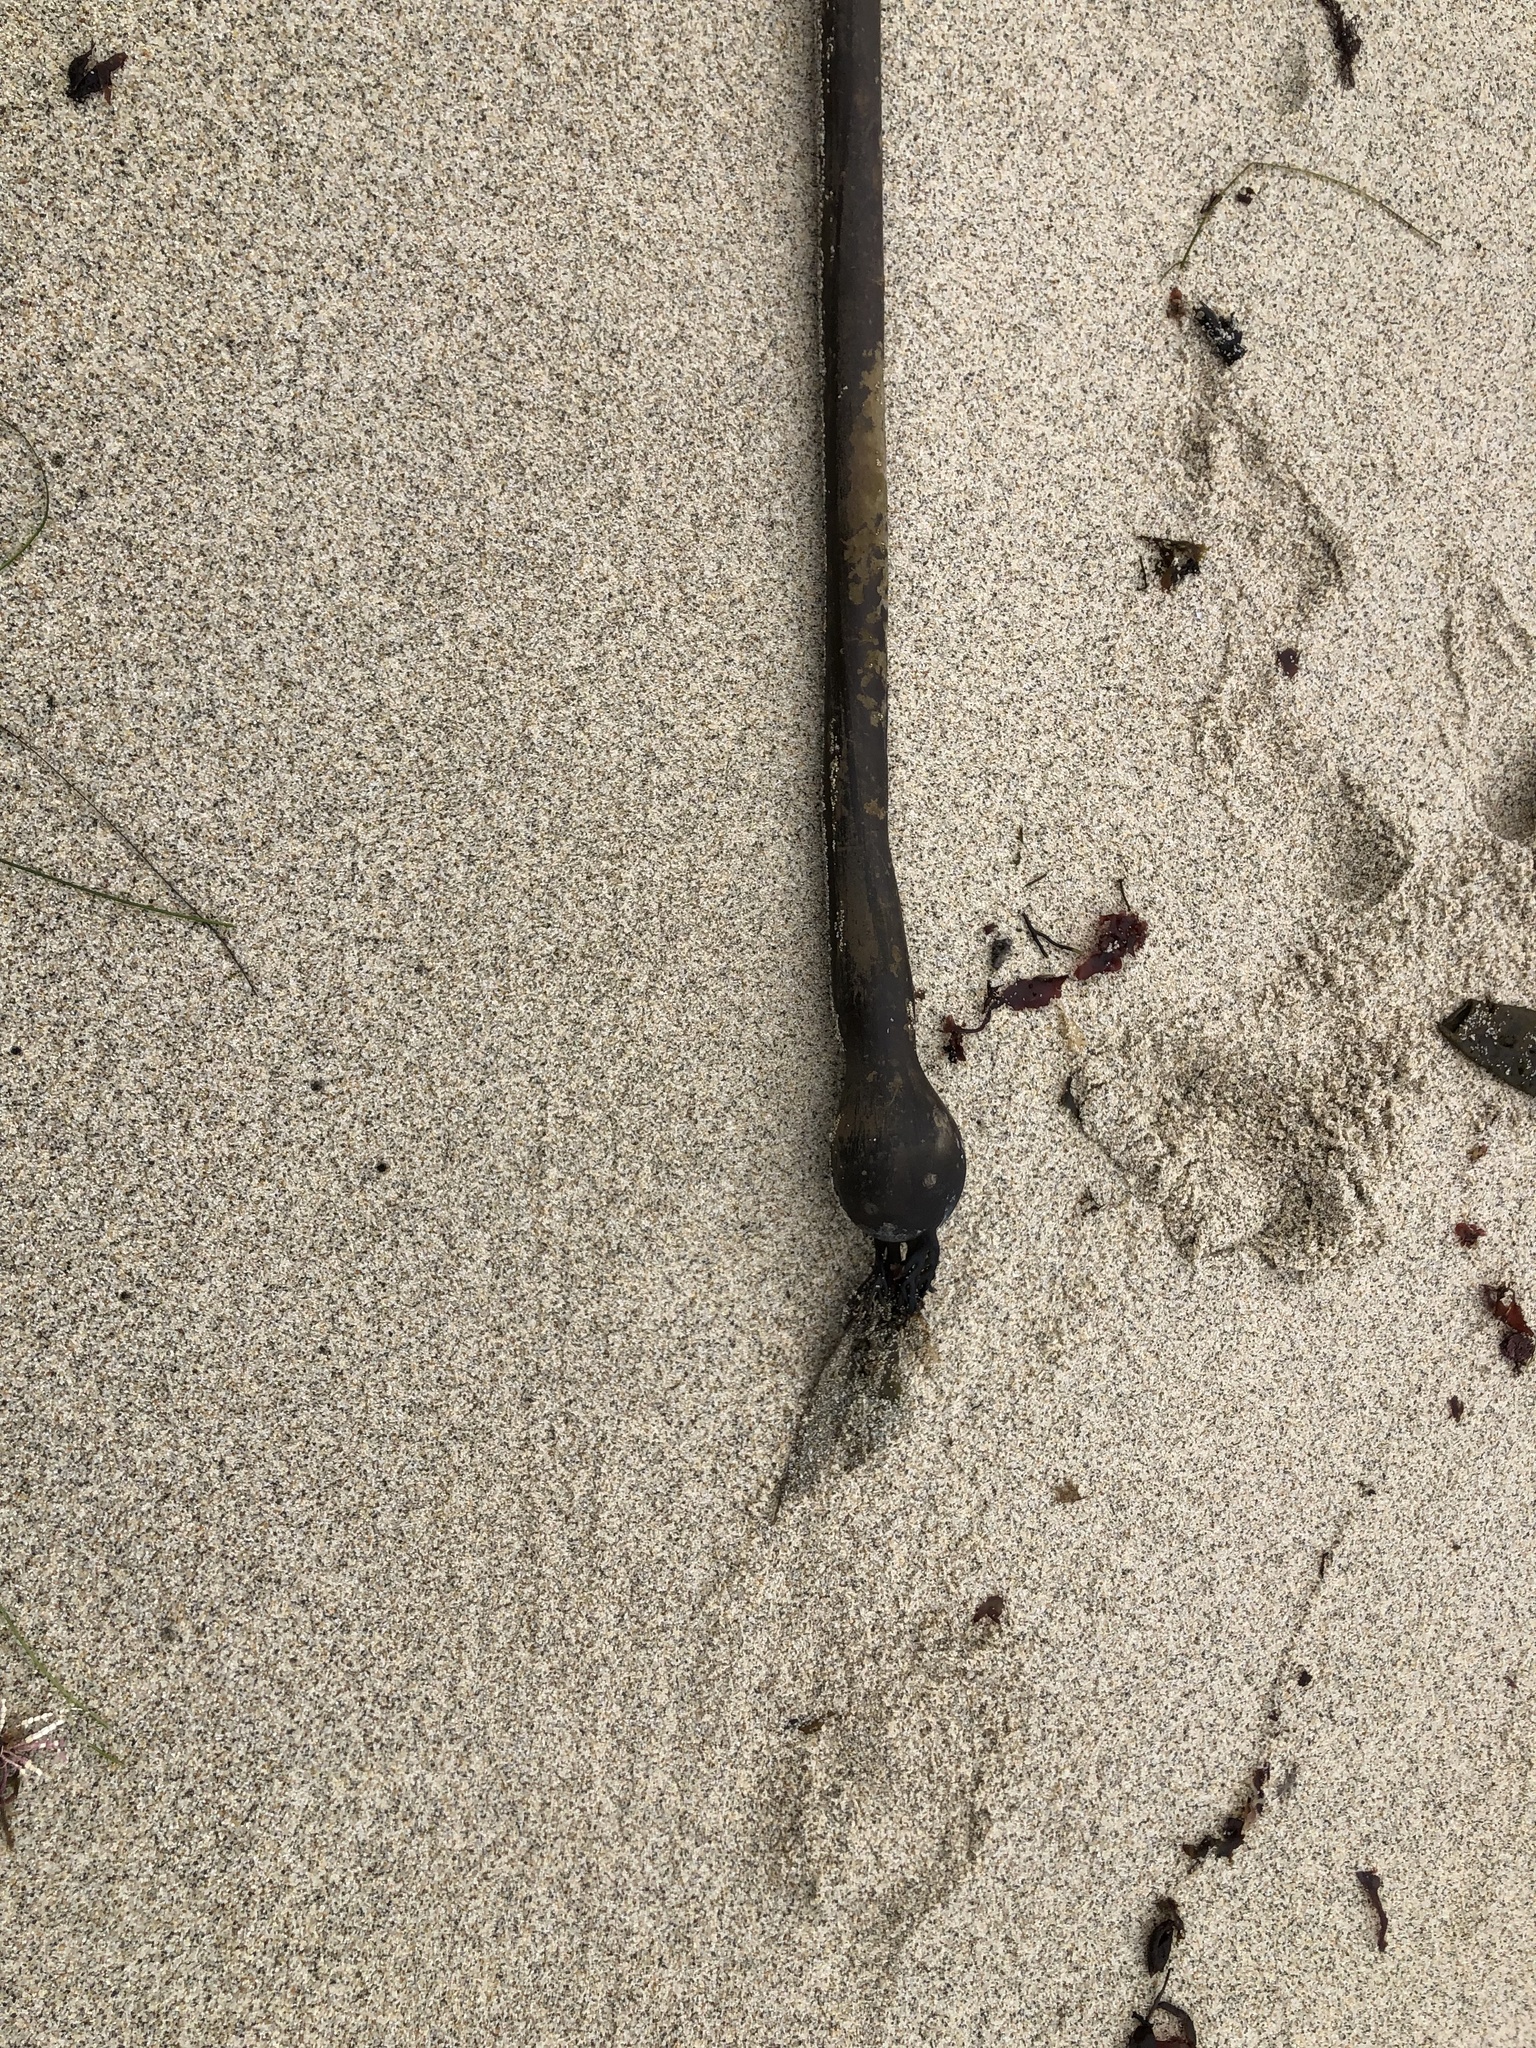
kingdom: Chromista
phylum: Ochrophyta
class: Phaeophyceae
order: Laminariales
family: Laminariaceae
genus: Nereocystis
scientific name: Nereocystis luetkeana
